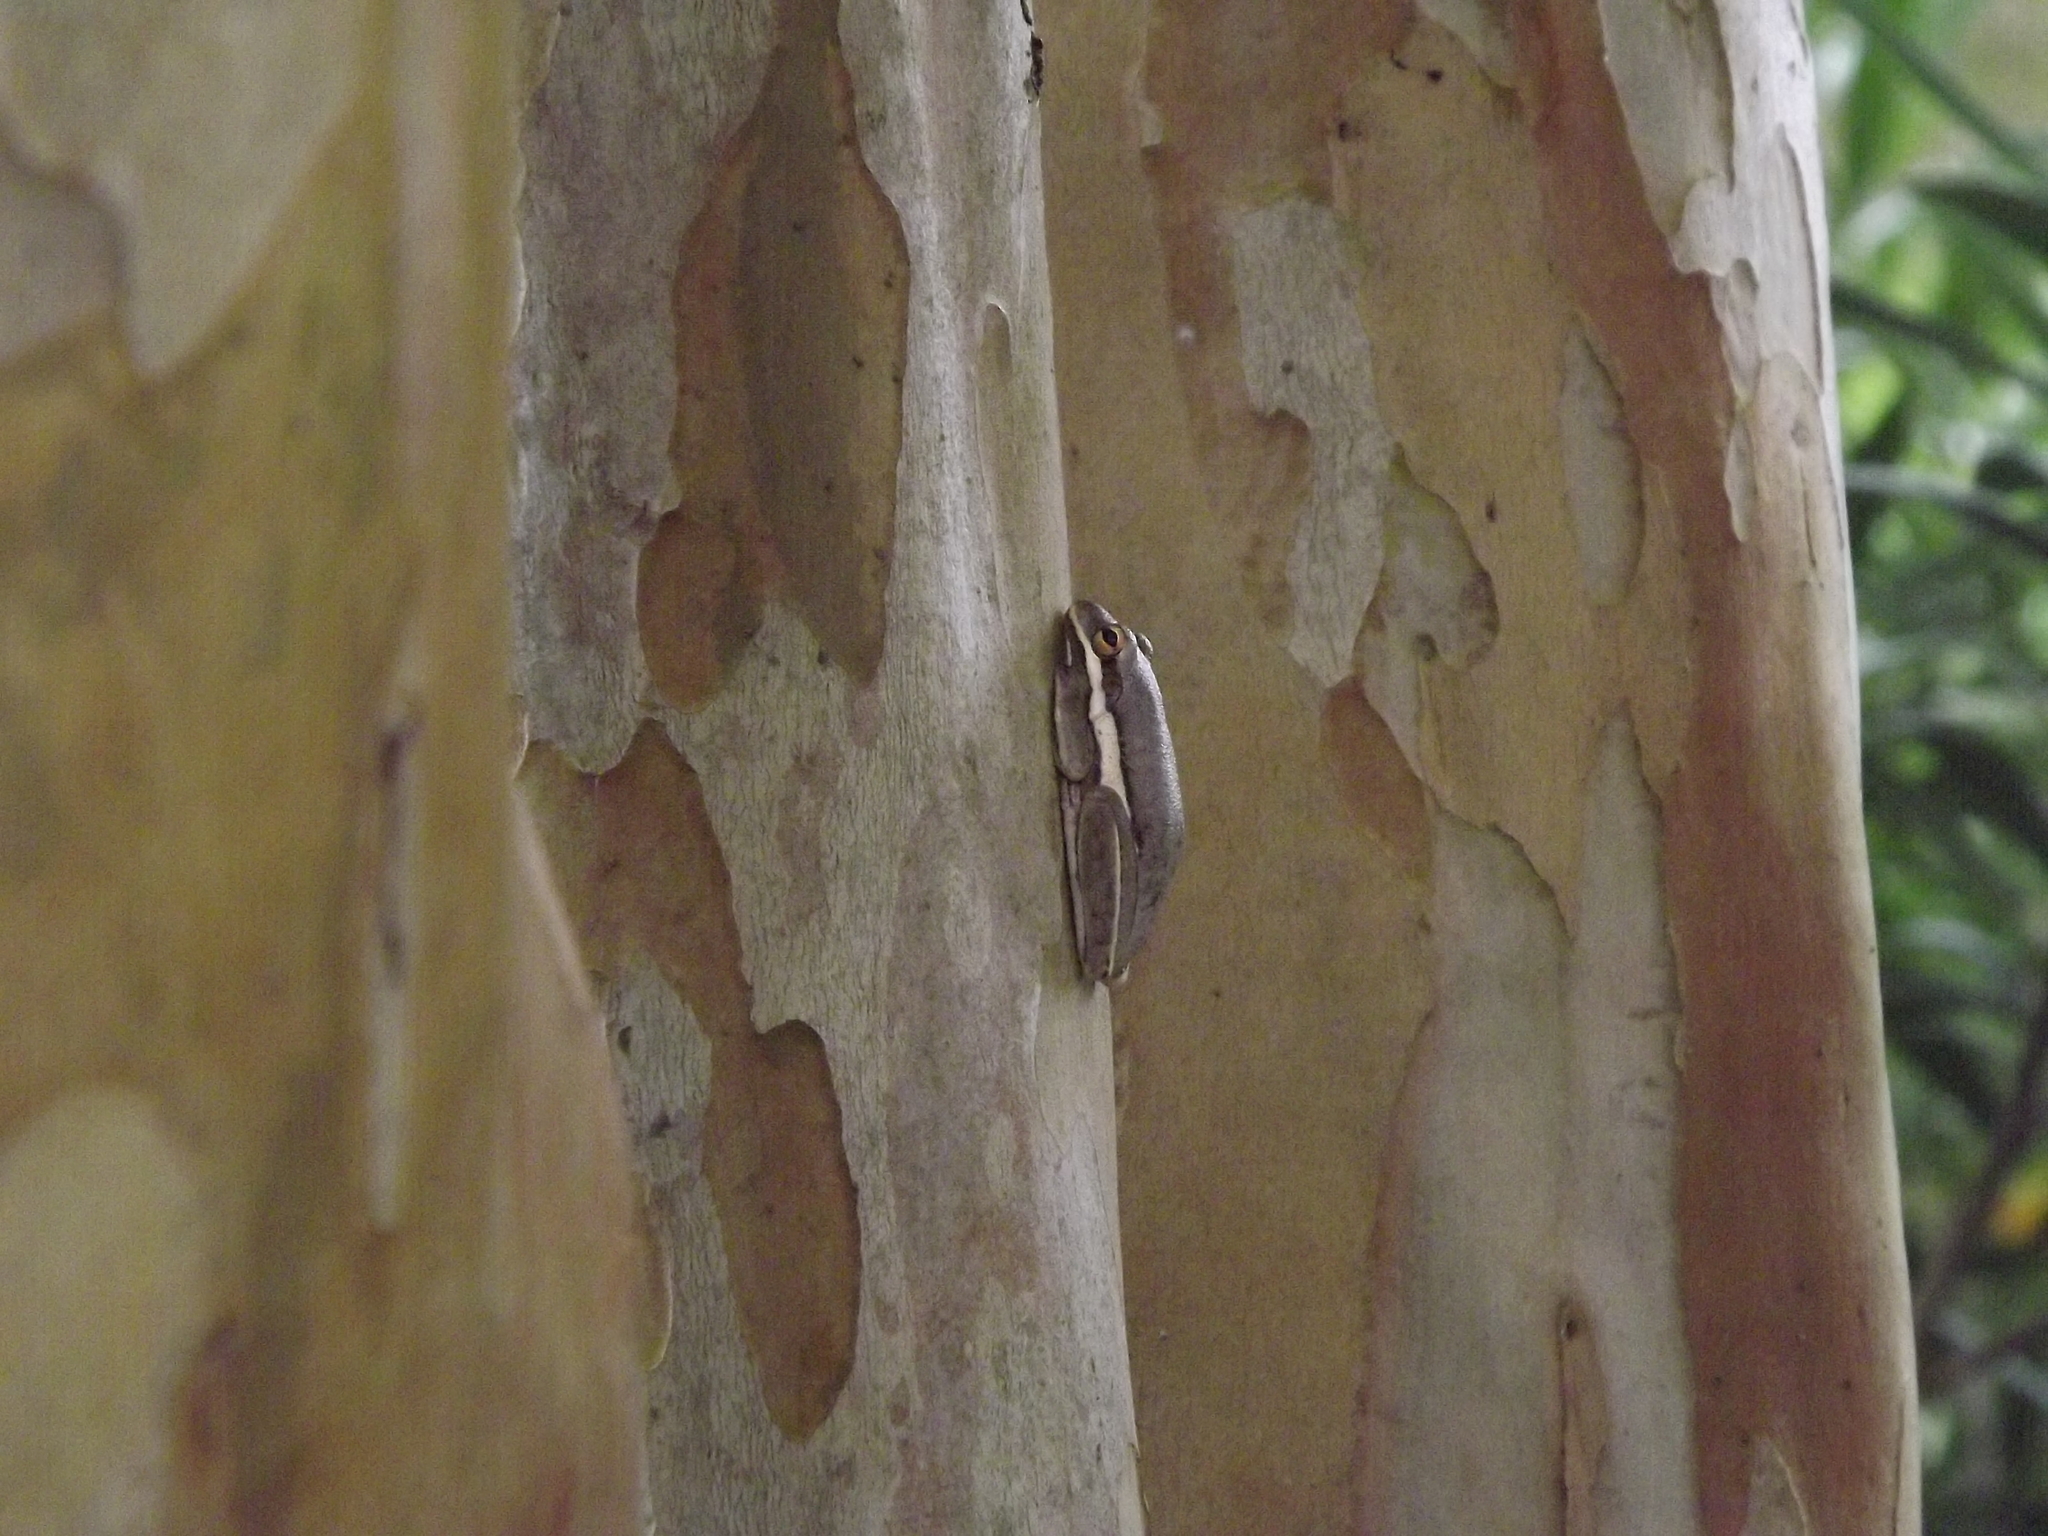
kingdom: Animalia
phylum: Chordata
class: Amphibia
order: Anura
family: Hylidae
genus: Dryophytes
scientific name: Dryophytes cinereus
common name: Green treefrog
